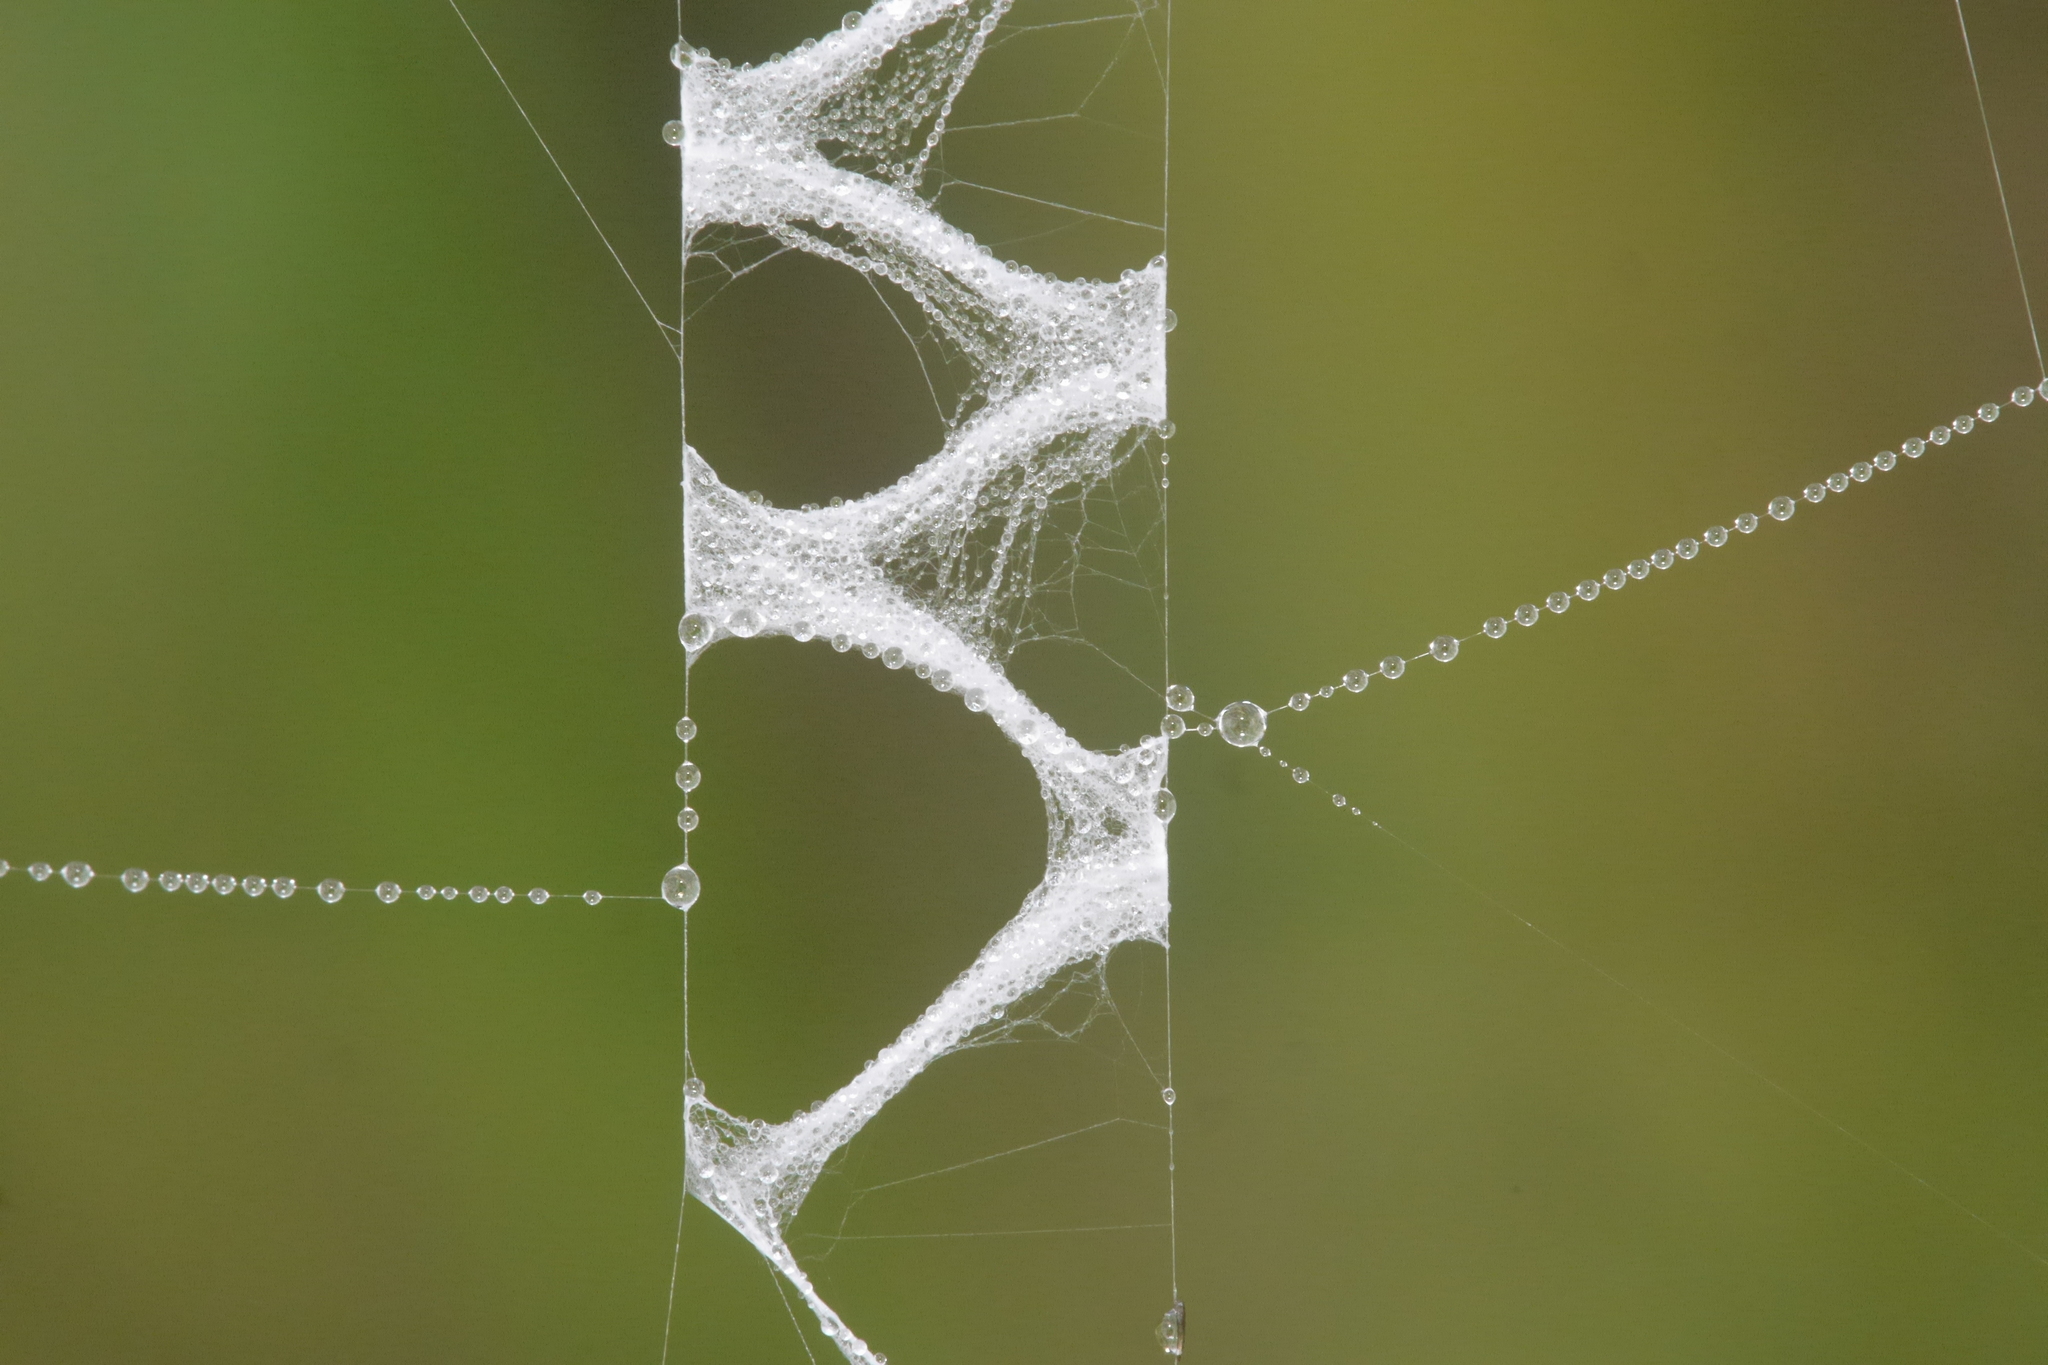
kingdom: Animalia
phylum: Arthropoda
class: Arachnida
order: Araneae
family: Araneidae
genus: Argiope
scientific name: Argiope bruennichi
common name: Wasp spider
